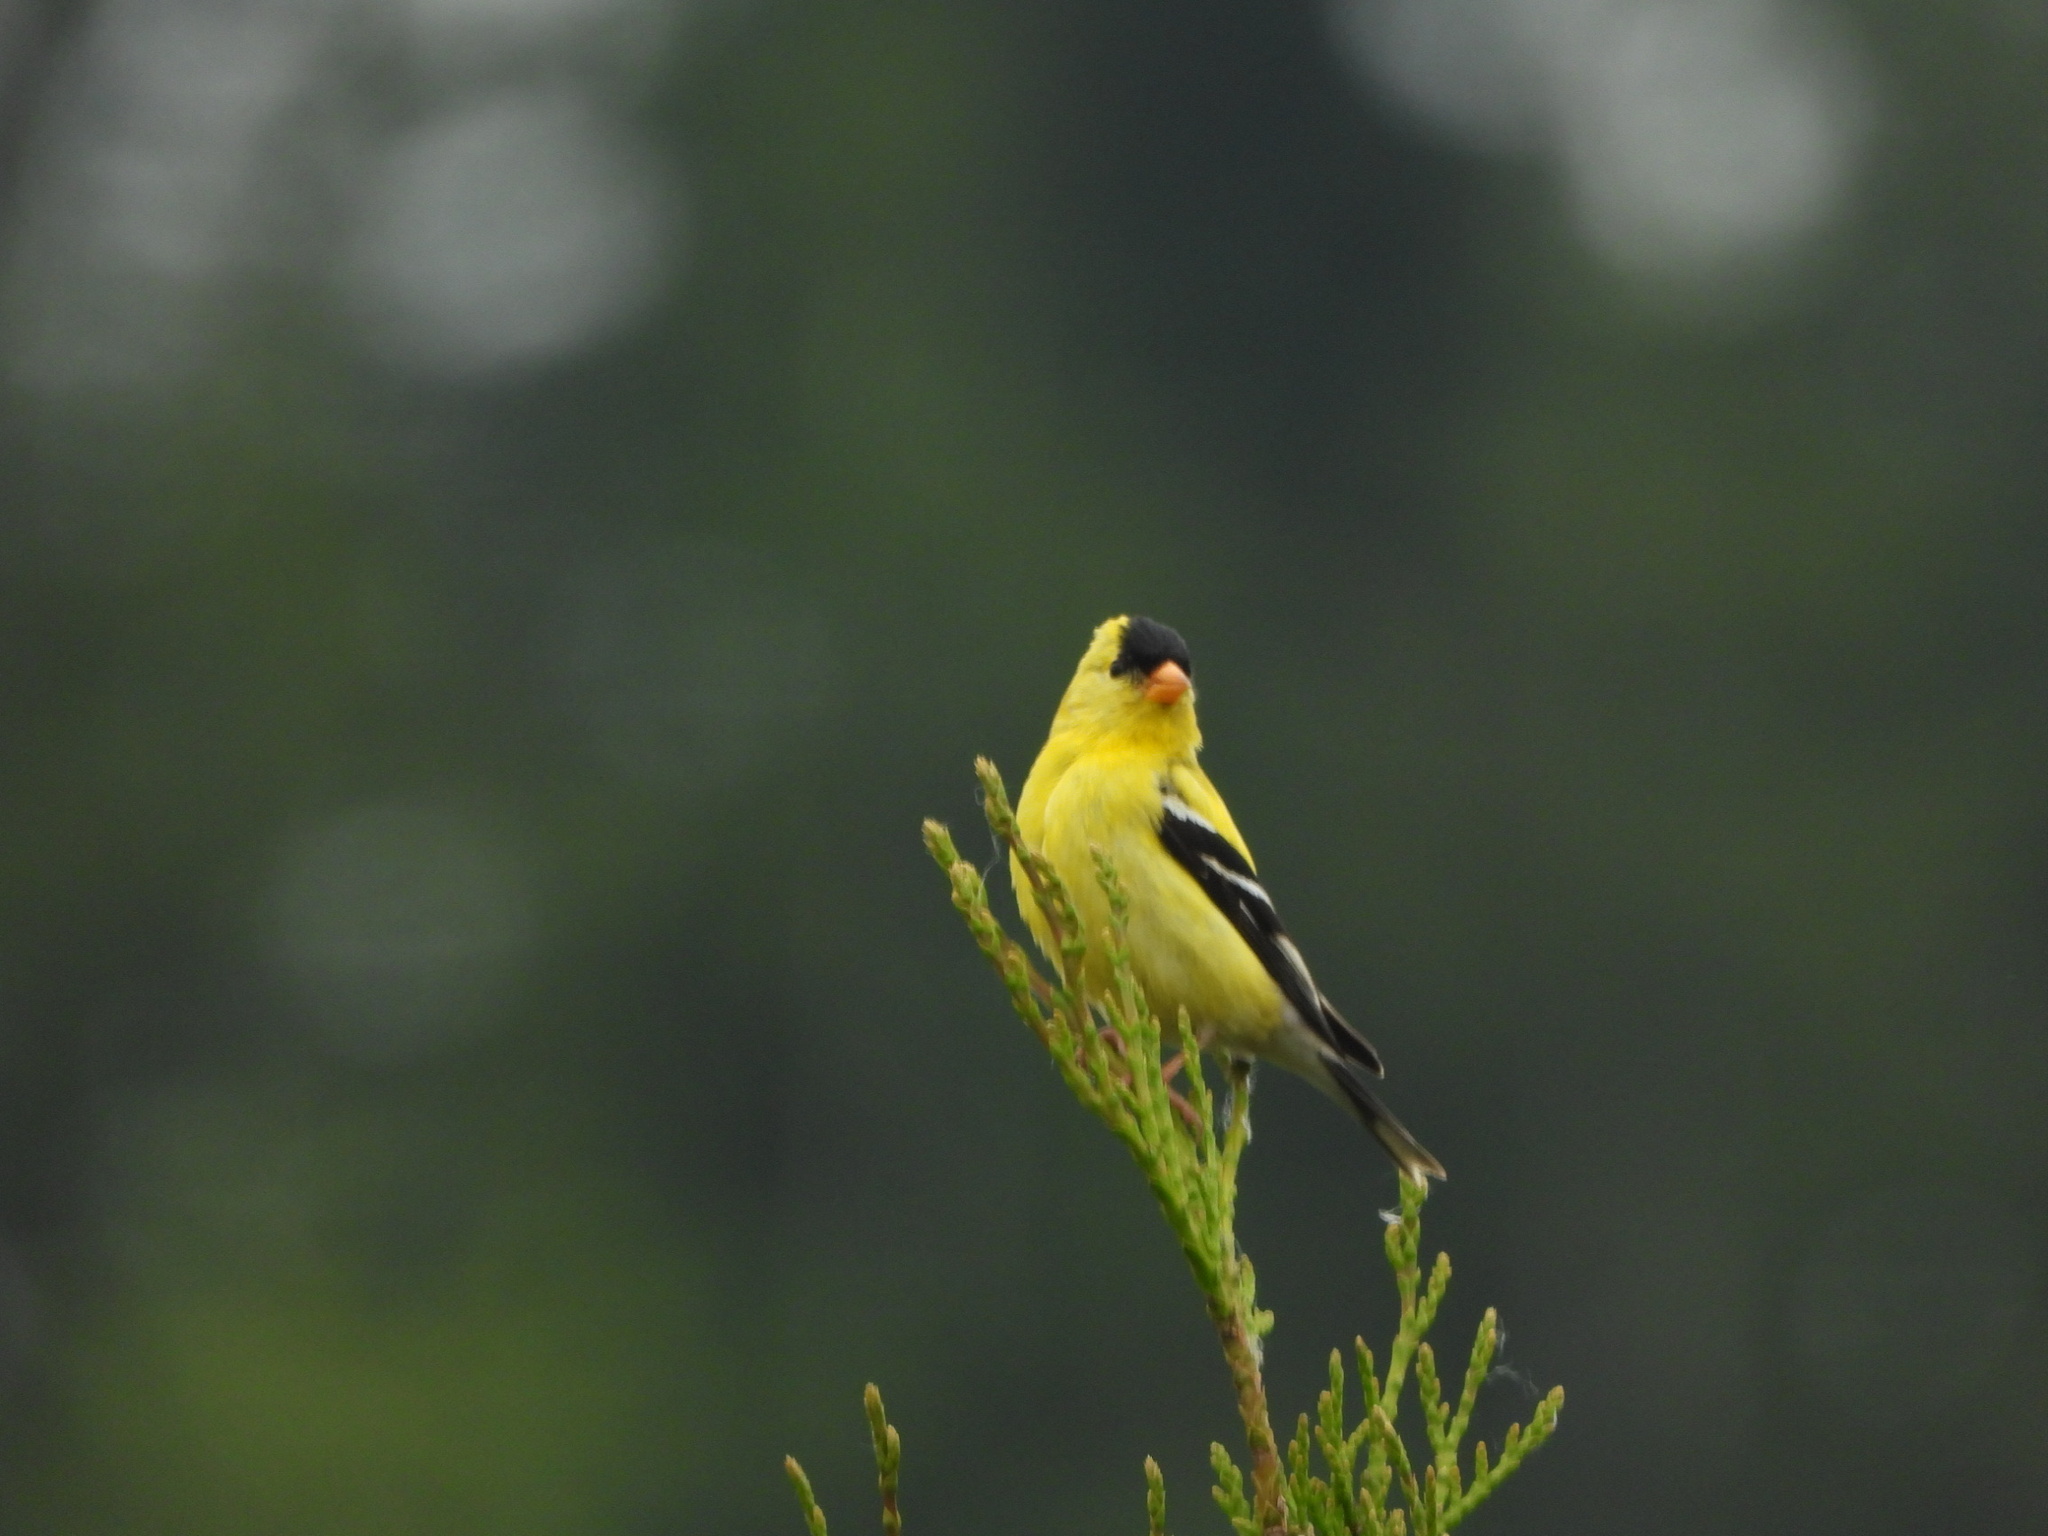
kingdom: Animalia
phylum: Chordata
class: Aves
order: Passeriformes
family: Fringillidae
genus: Spinus
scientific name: Spinus tristis
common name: American goldfinch
